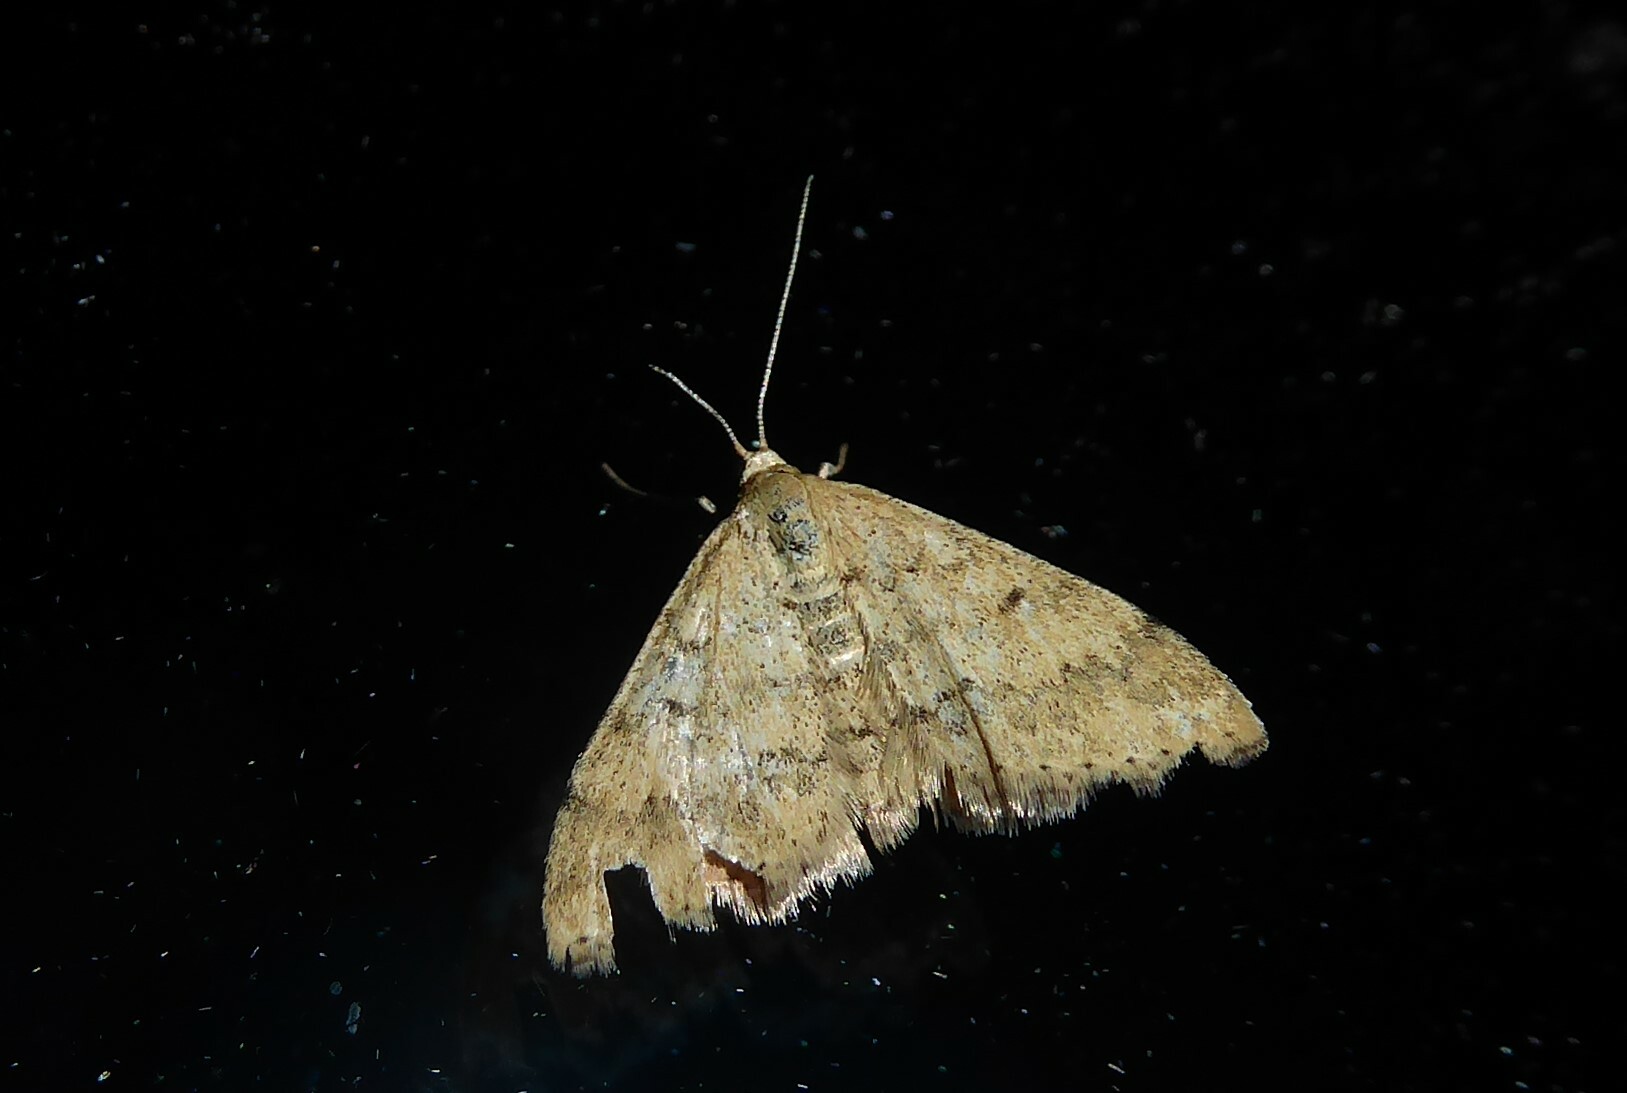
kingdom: Animalia
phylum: Arthropoda
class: Insecta
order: Lepidoptera
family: Geometridae
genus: Scopula
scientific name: Scopula rubraria
